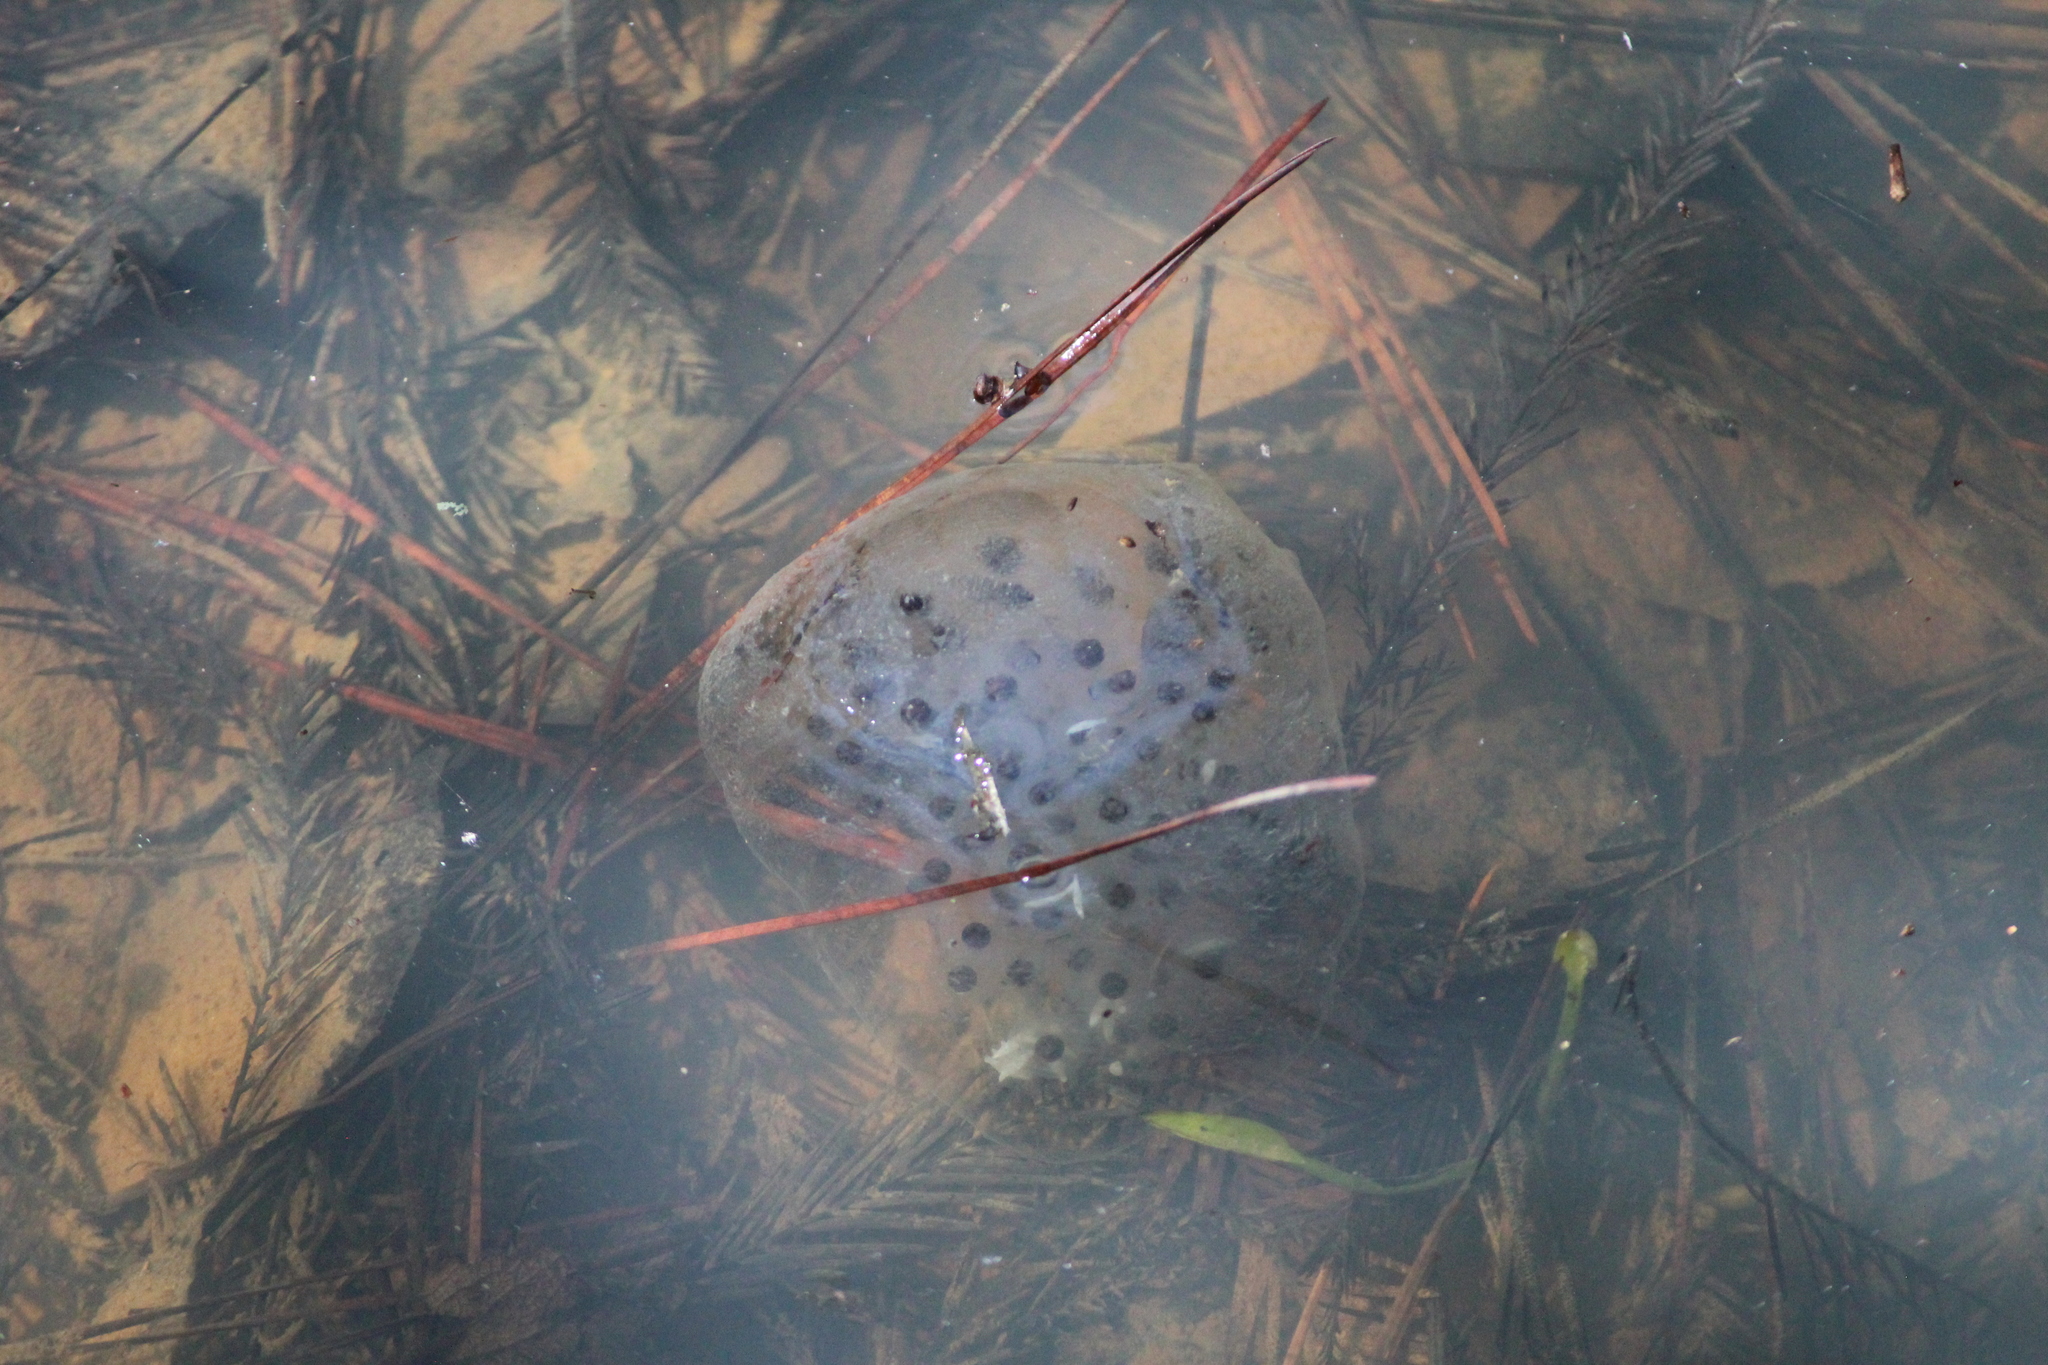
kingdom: Animalia
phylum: Chordata
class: Amphibia
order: Caudata
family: Ambystomatidae
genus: Ambystoma
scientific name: Ambystoma maculatum
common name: Spotted salamander
